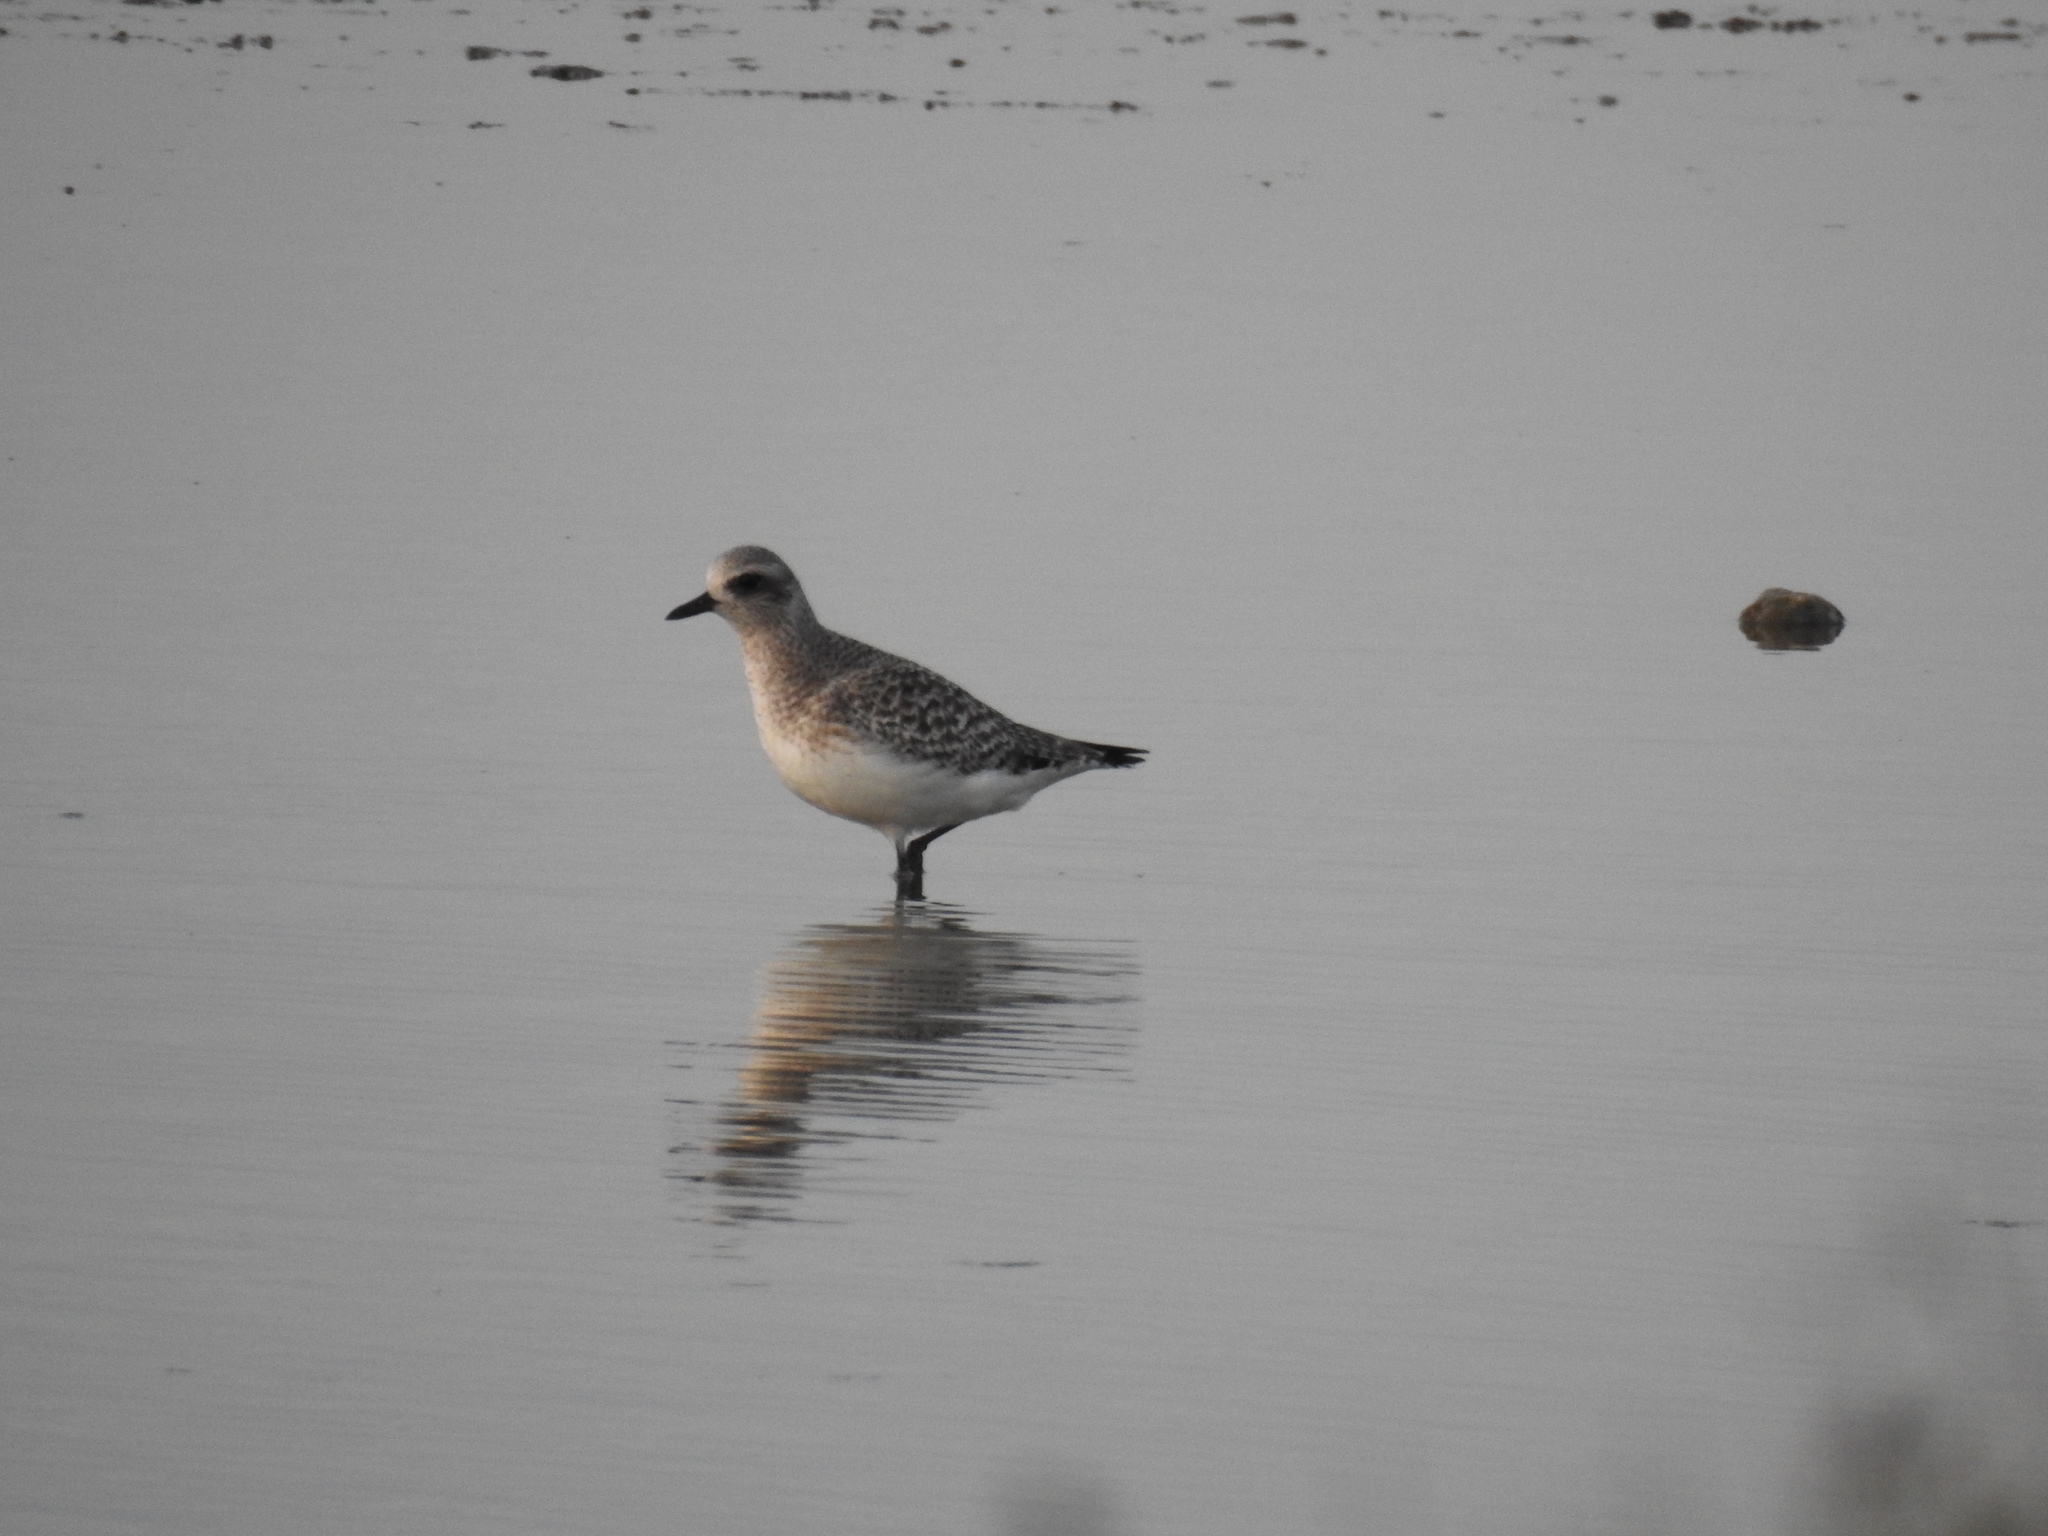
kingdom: Animalia
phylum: Chordata
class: Aves
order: Charadriiformes
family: Charadriidae
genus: Pluvialis
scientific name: Pluvialis squatarola
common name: Grey plover
